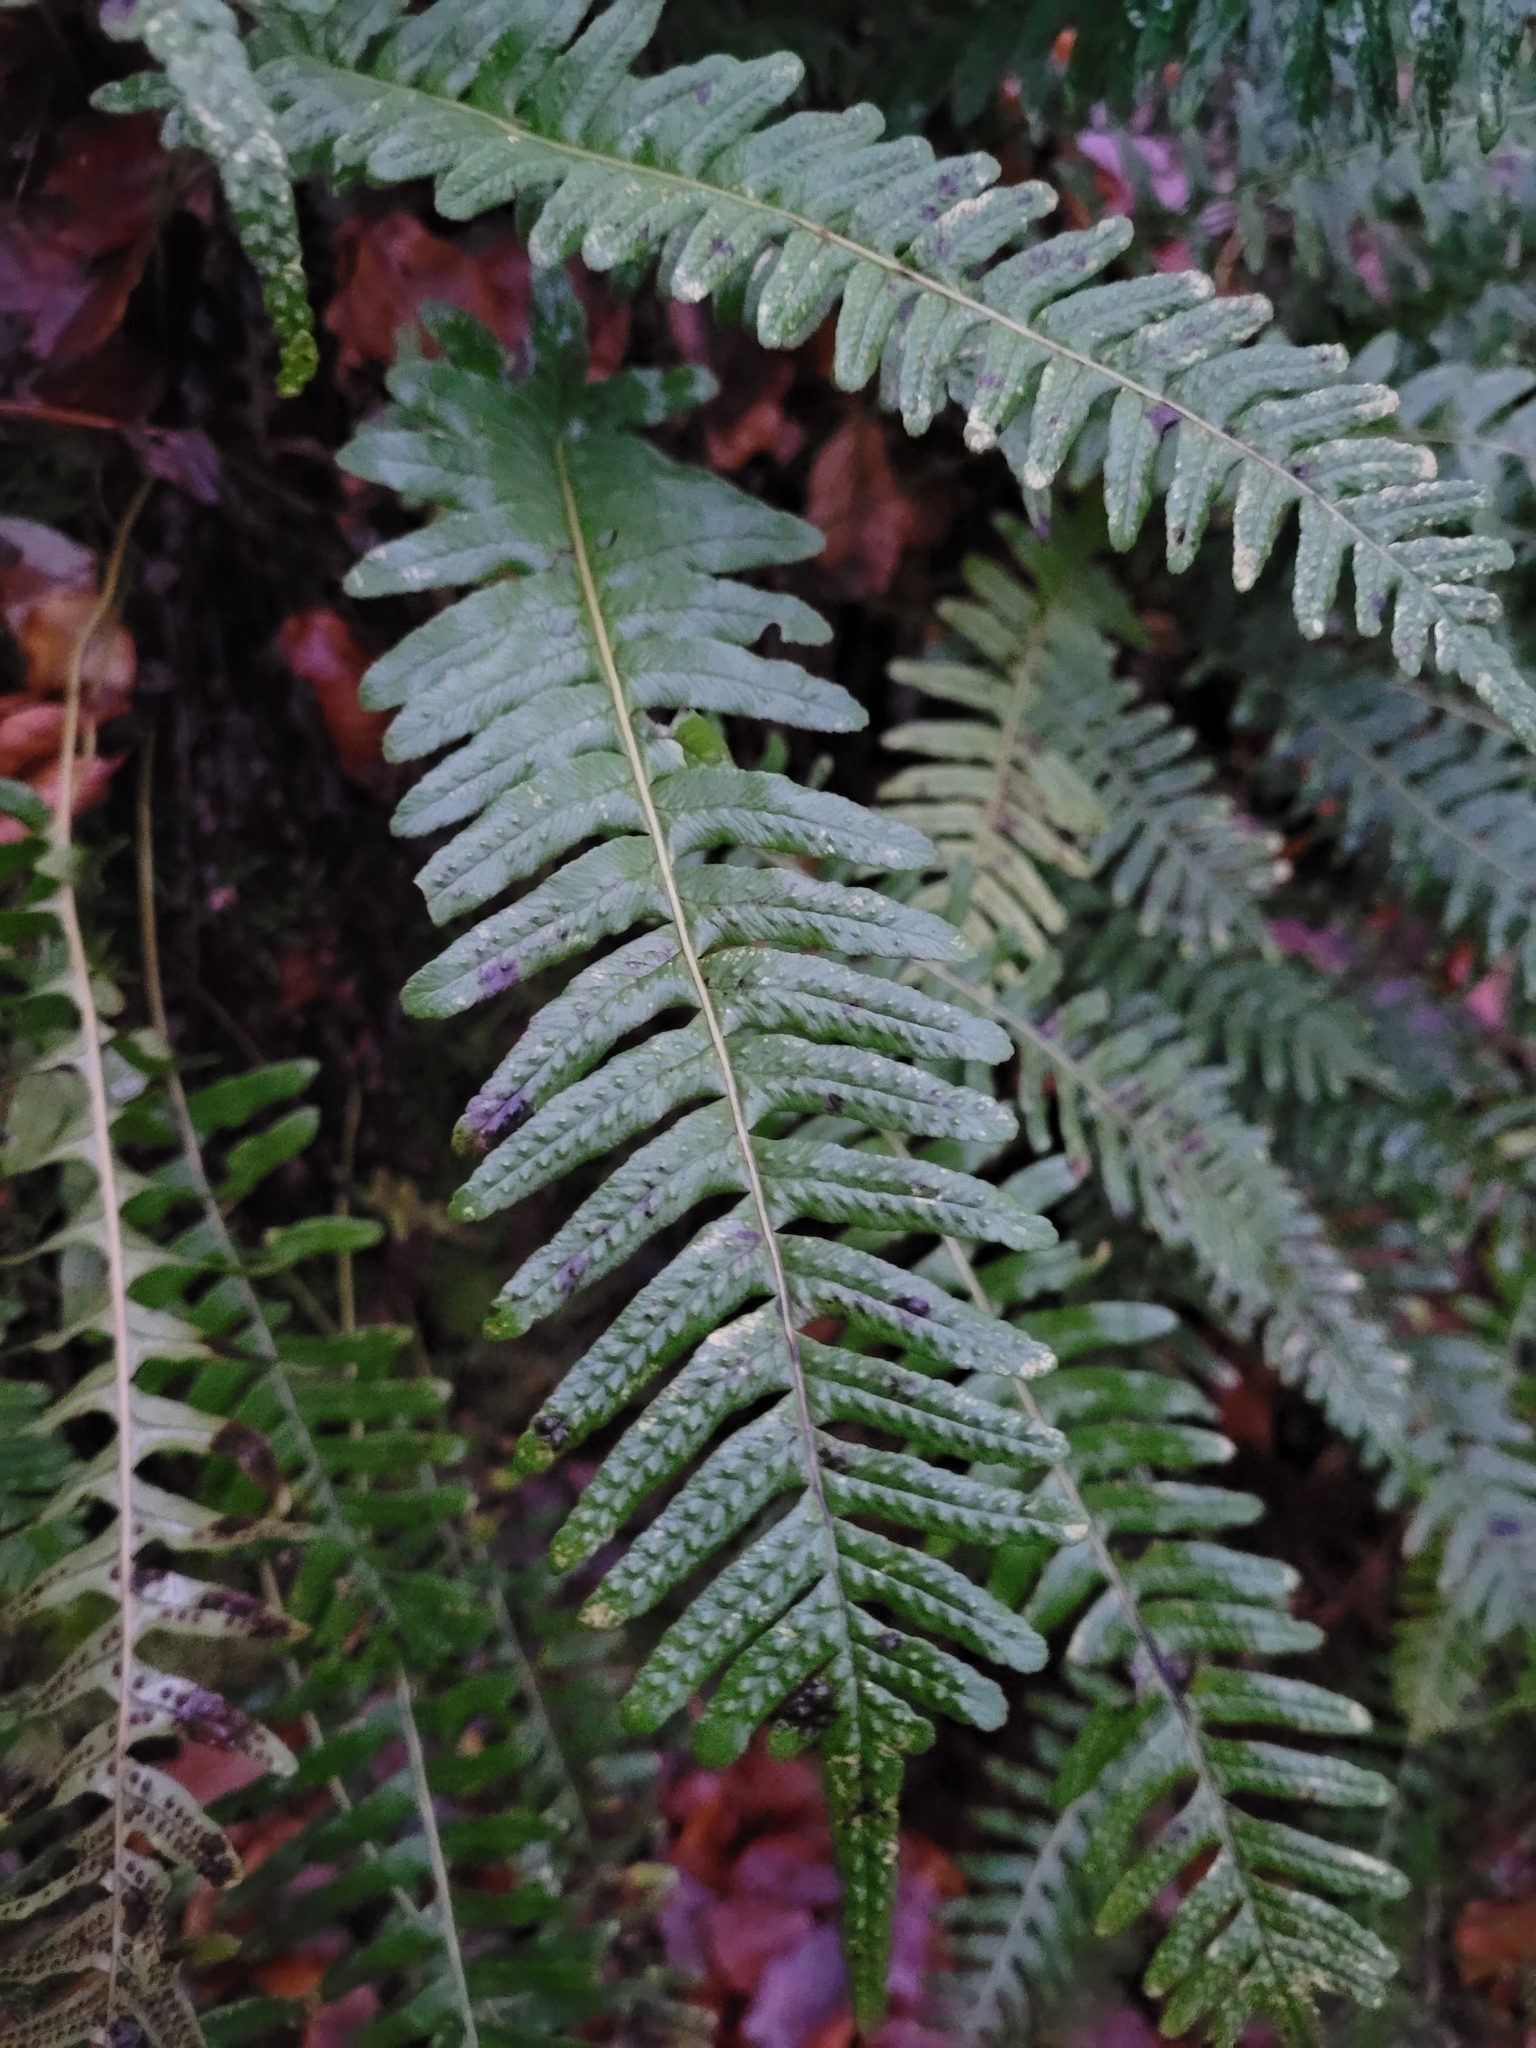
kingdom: Plantae
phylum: Tracheophyta
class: Polypodiopsida
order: Polypodiales
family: Polypodiaceae
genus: Polypodium
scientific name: Polypodium vulgare
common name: Common polypody
